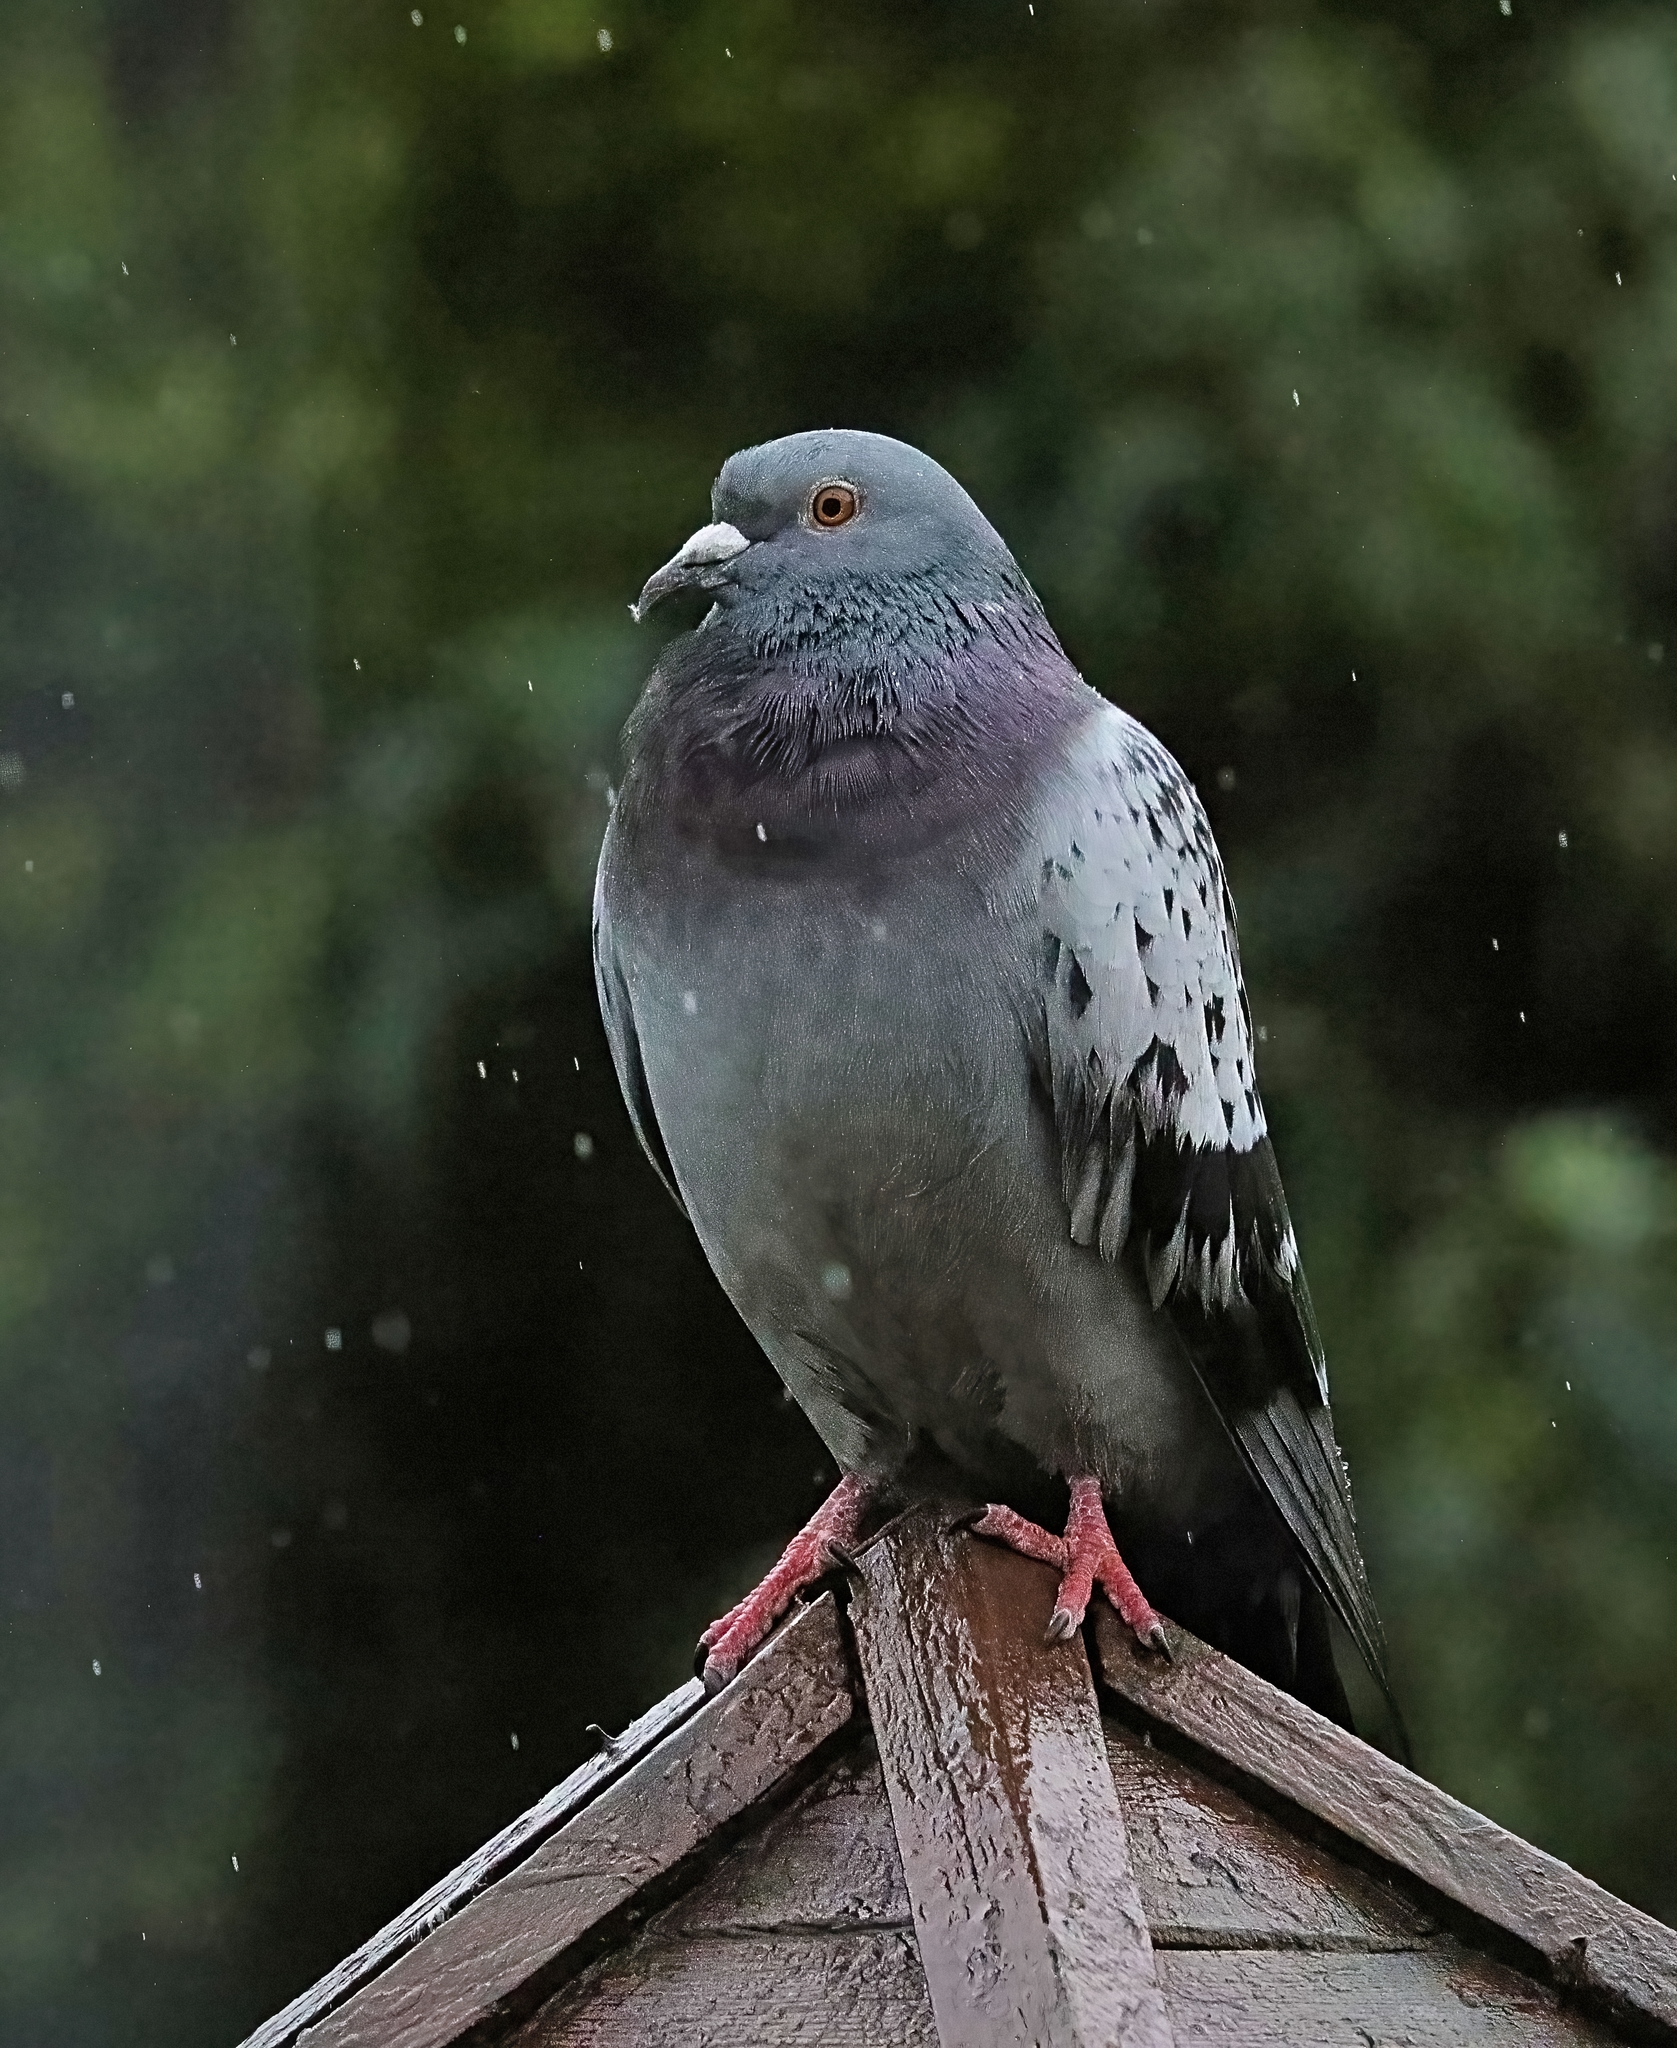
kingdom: Animalia
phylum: Chordata
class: Aves
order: Columbiformes
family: Columbidae
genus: Columba
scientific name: Columba livia
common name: Rock pigeon
